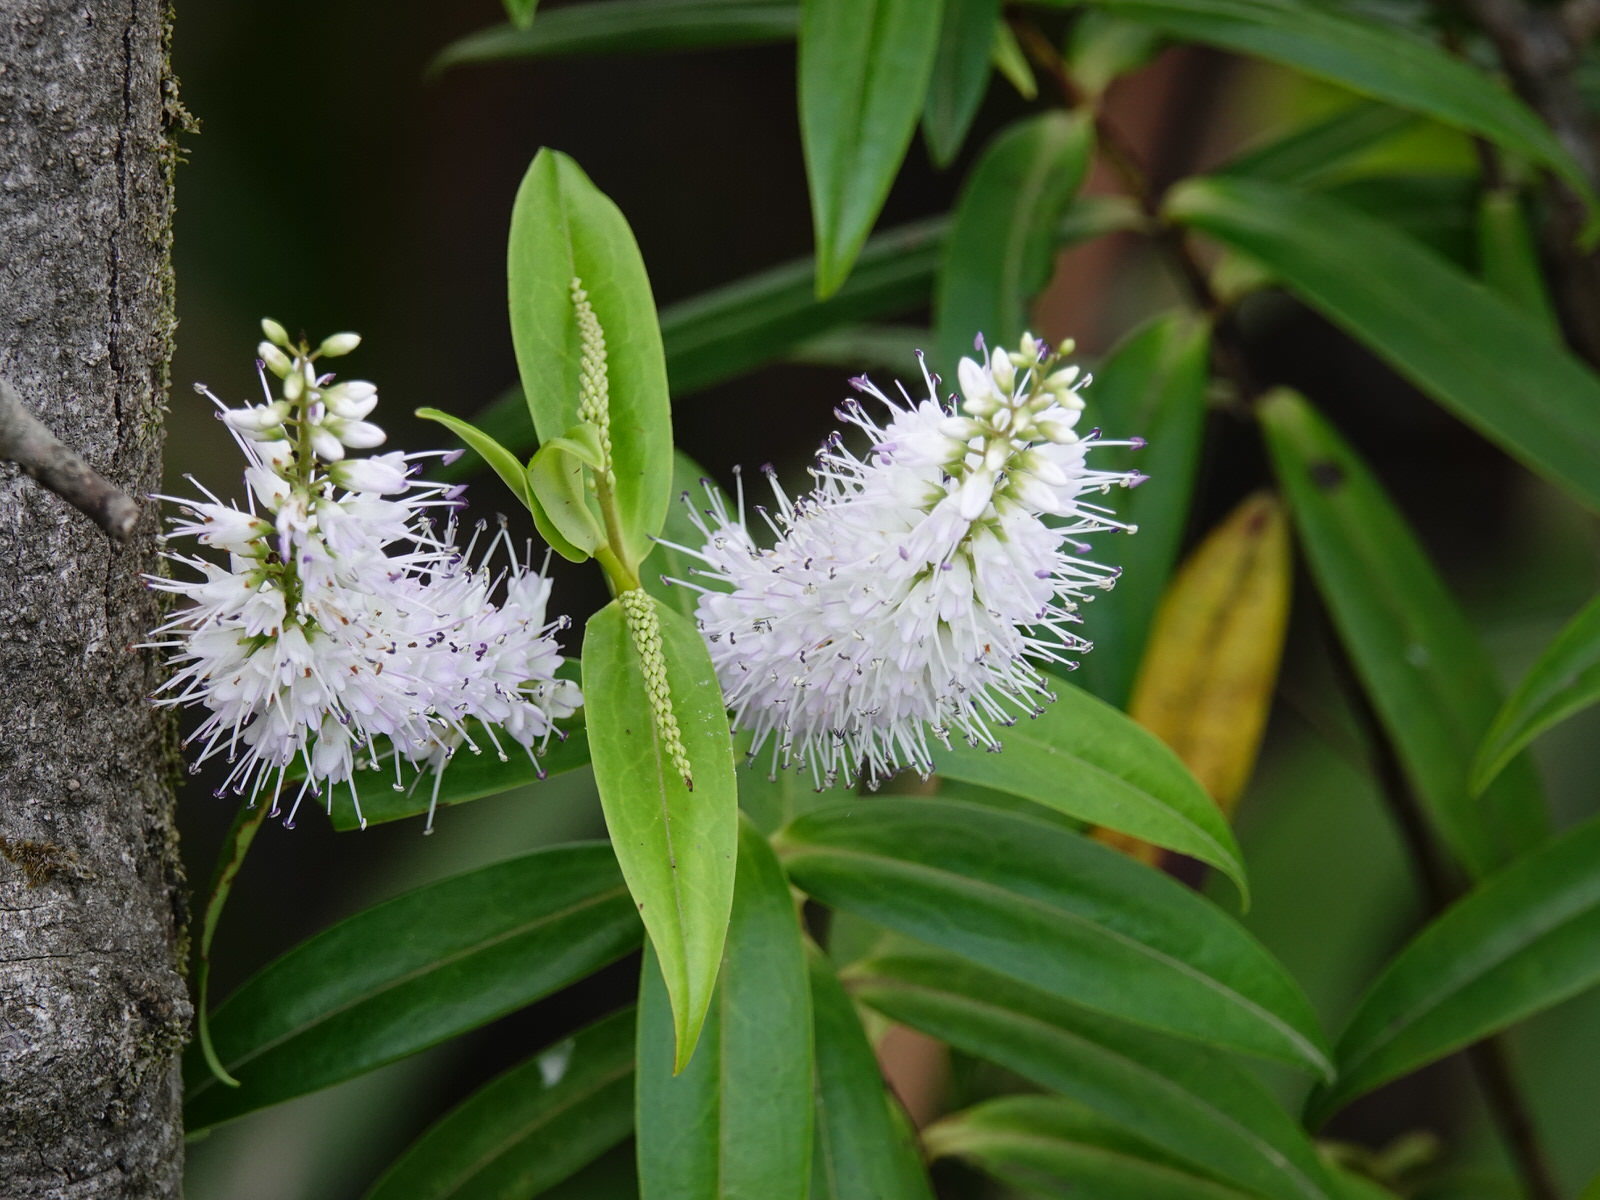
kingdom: Plantae
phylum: Tracheophyta
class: Magnoliopsida
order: Lamiales
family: Plantaginaceae
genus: Veronica
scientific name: Veronica macrocarpa
